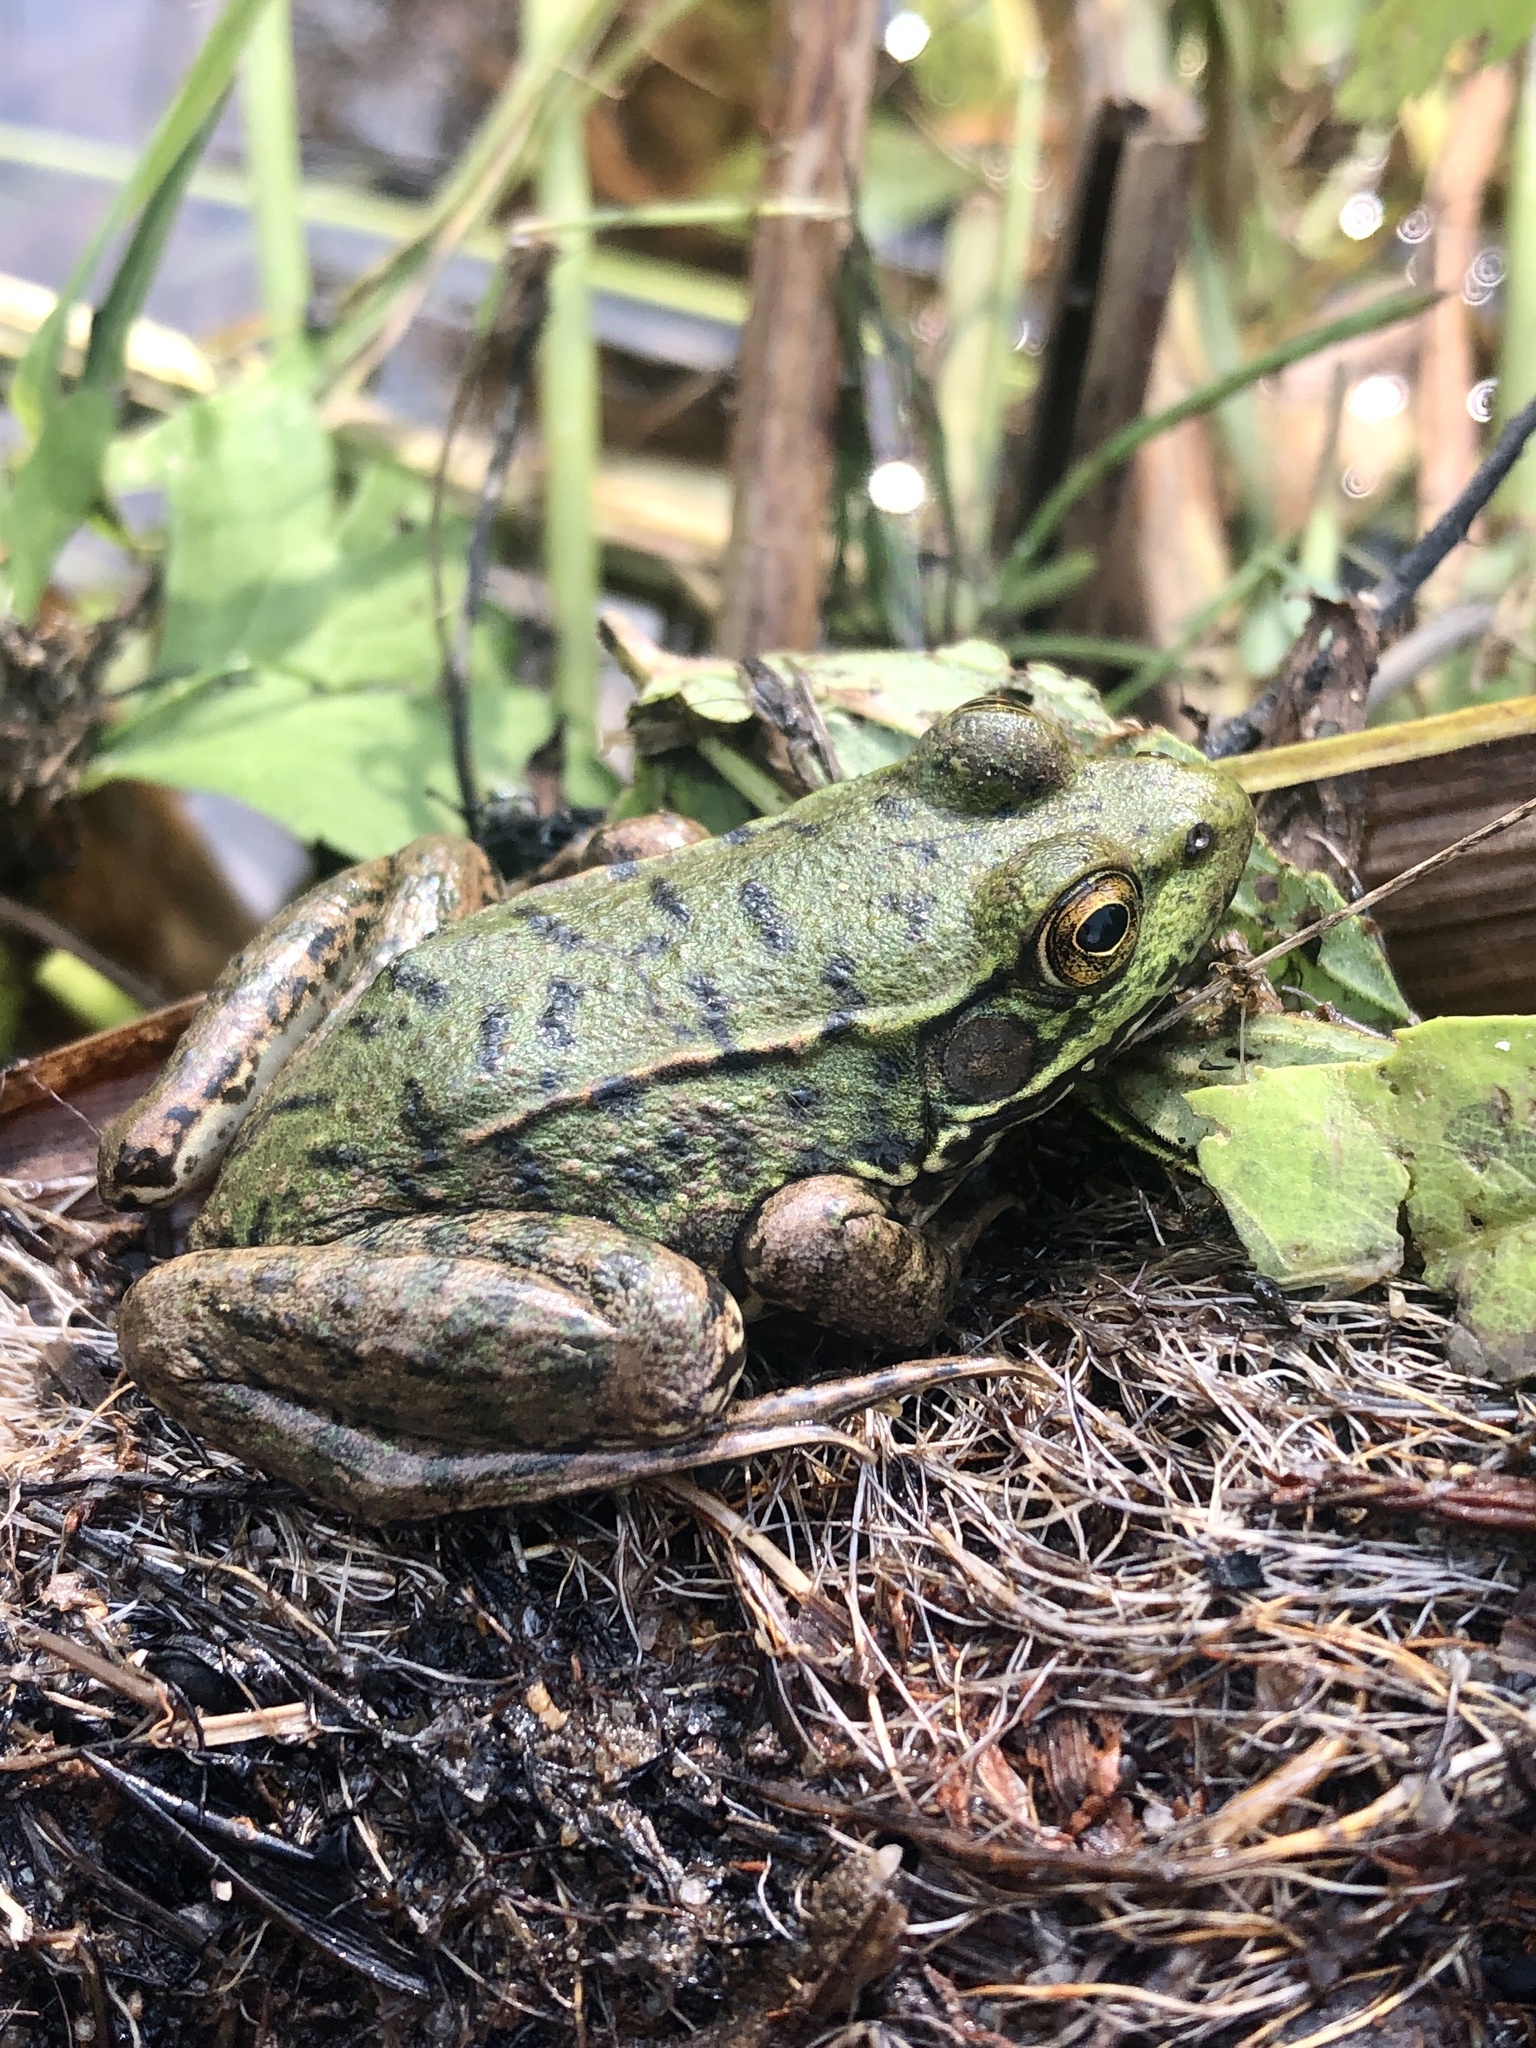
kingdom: Animalia
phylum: Chordata
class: Amphibia
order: Anura
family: Ranidae
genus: Lithobates
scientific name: Lithobates clamitans
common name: Green frog
